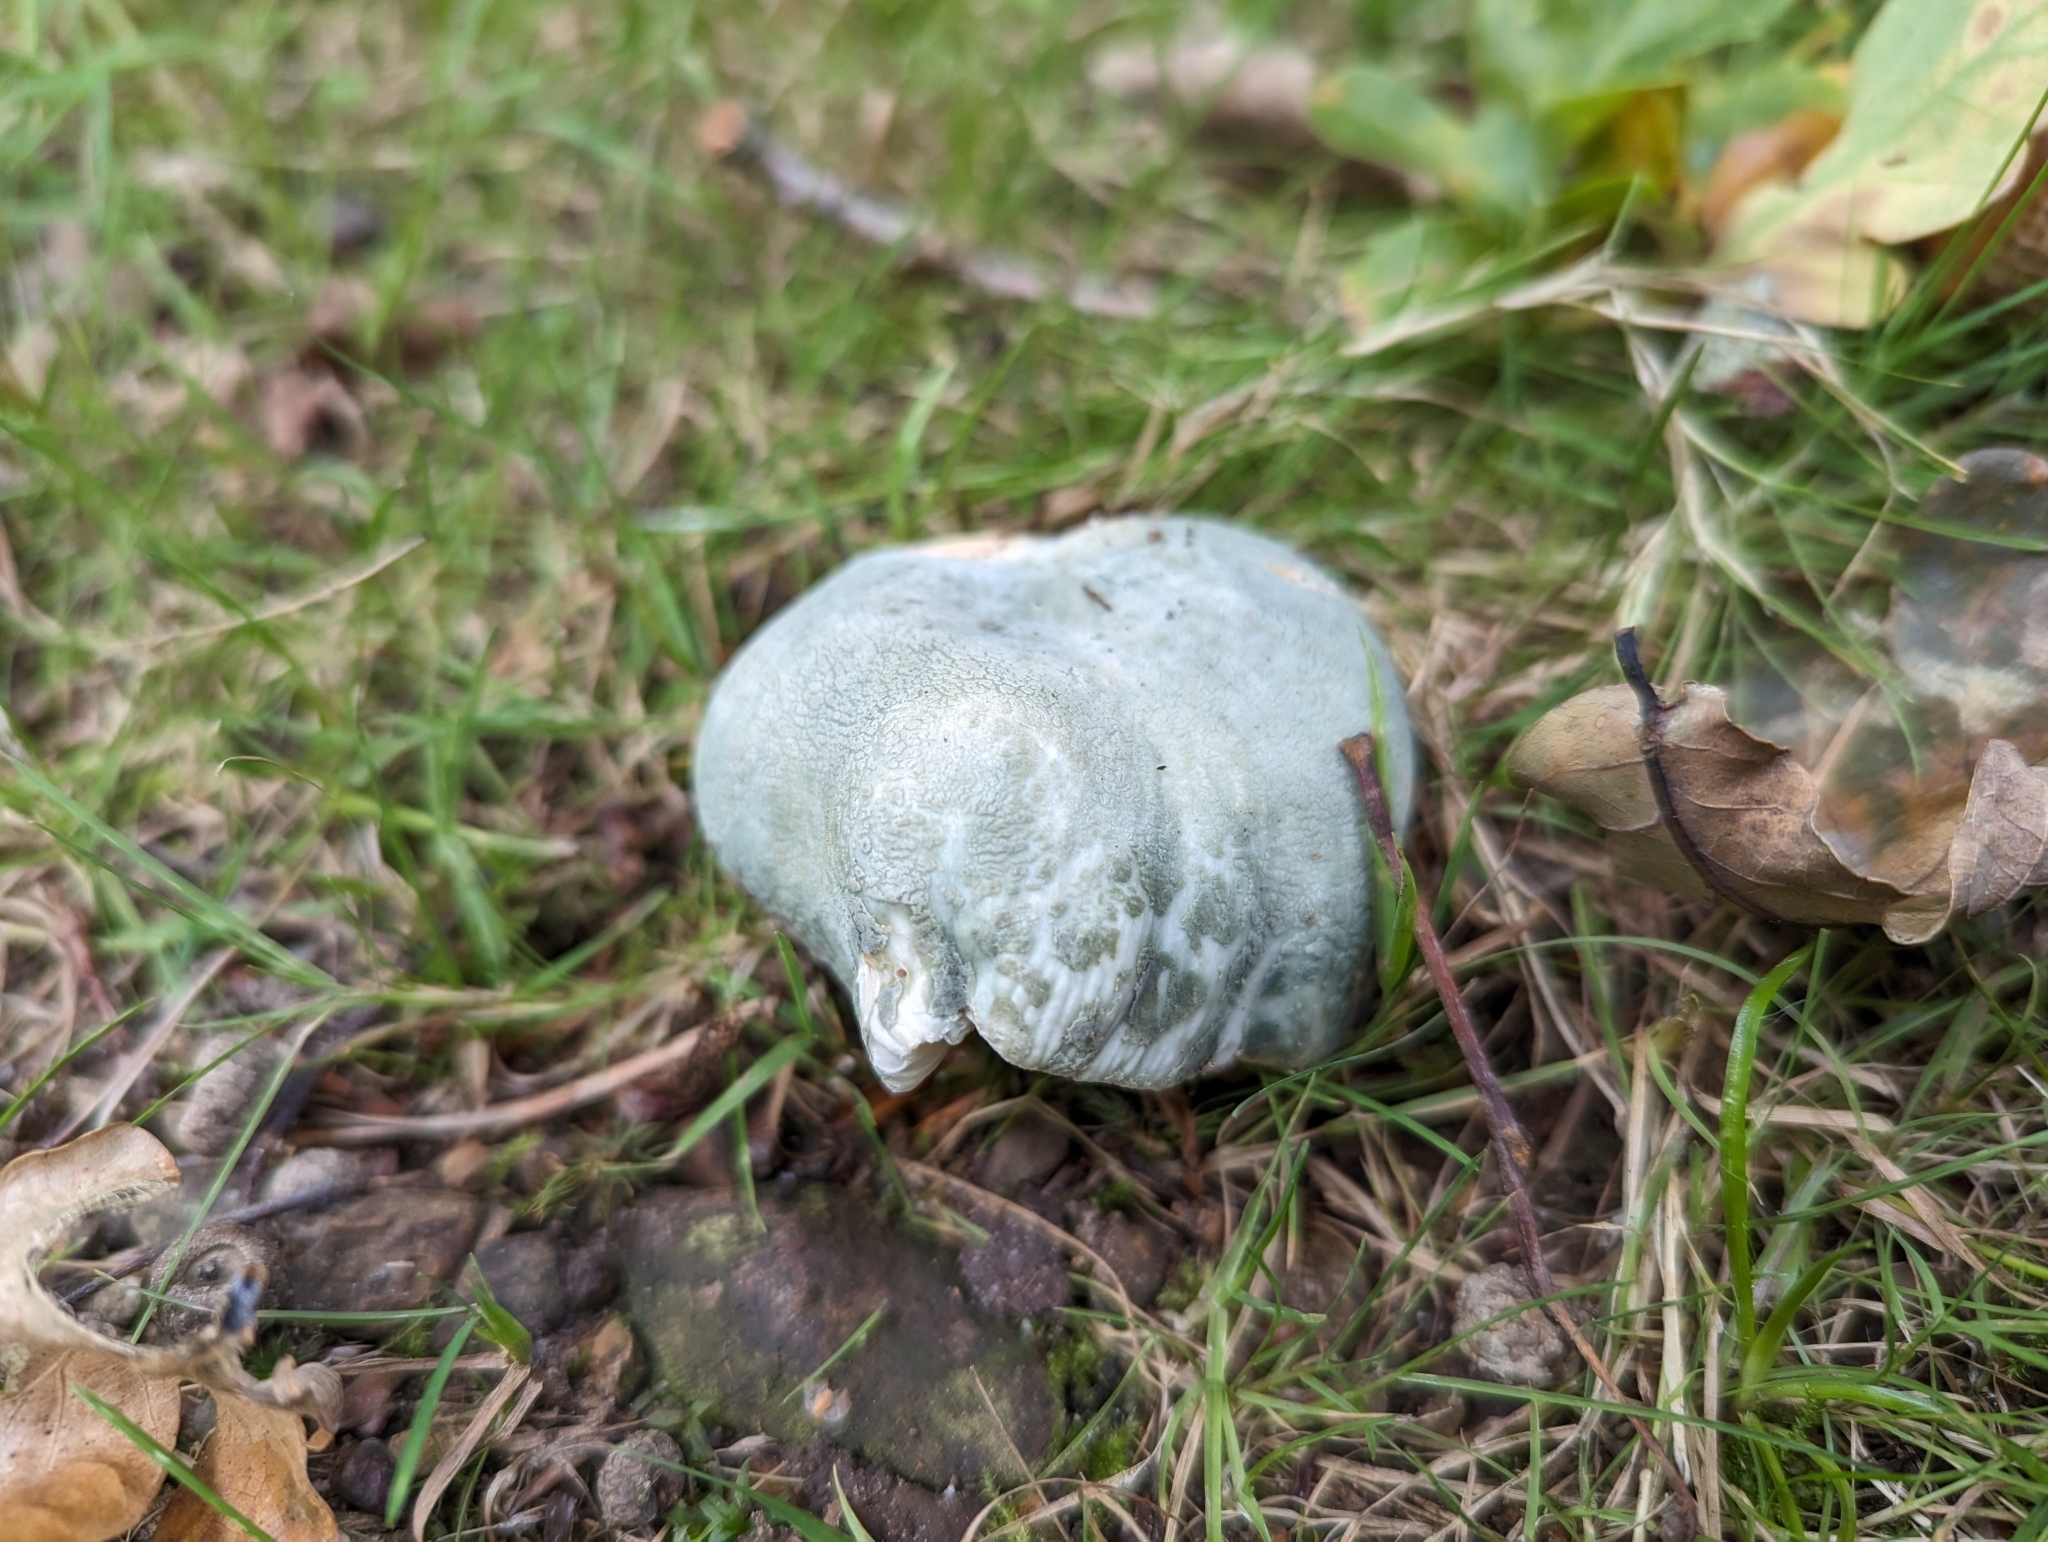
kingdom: Fungi
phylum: Basidiomycota
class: Agaricomycetes
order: Russulales
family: Russulaceae
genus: Russula
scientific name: Russula virescens
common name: Greencracked brittlegill
